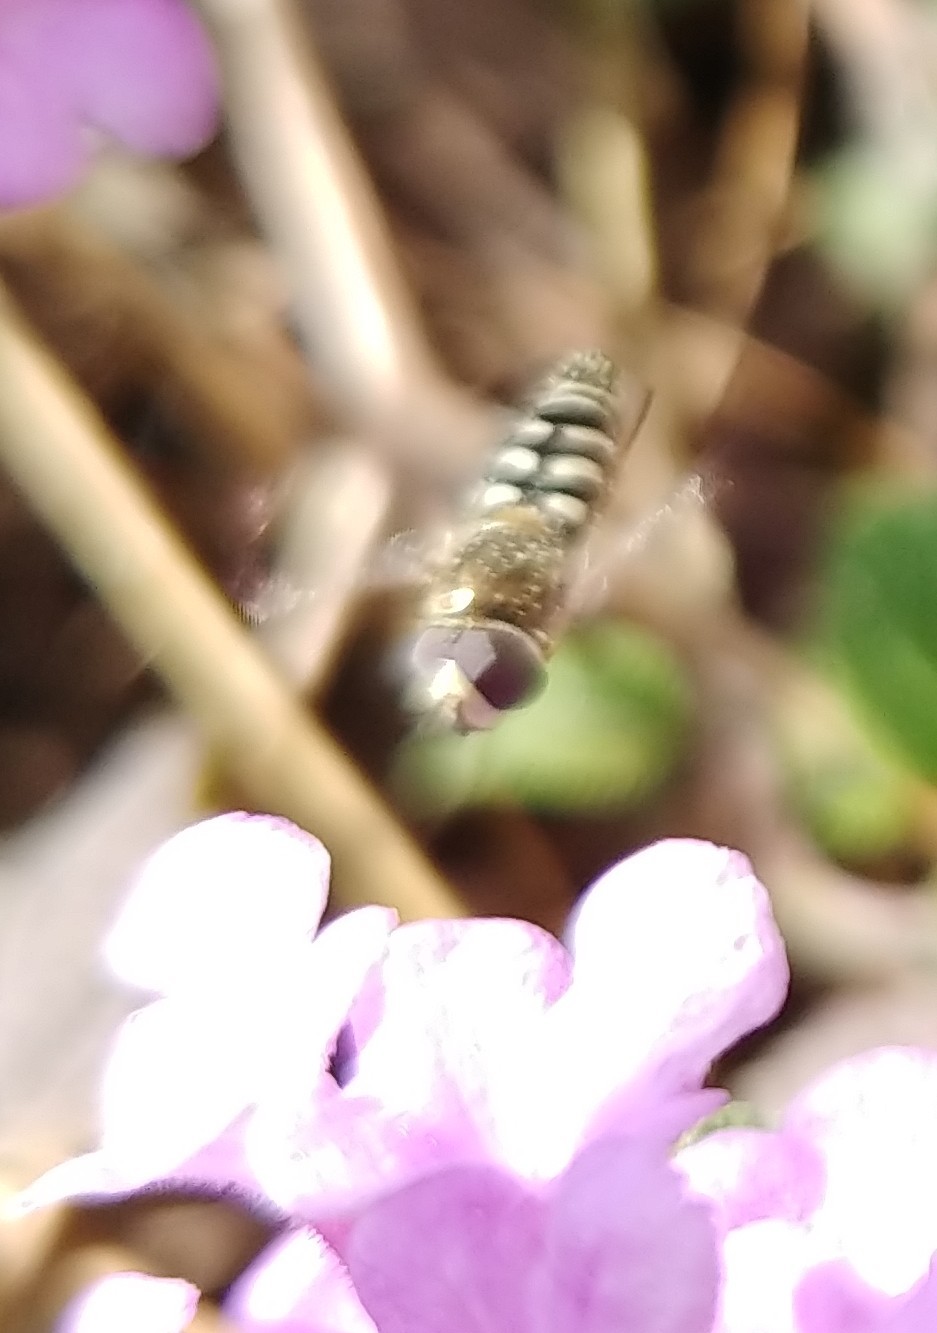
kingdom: Animalia
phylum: Arthropoda
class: Insecta
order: Diptera
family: Syrphidae
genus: Eupeodes
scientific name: Eupeodes volucris
